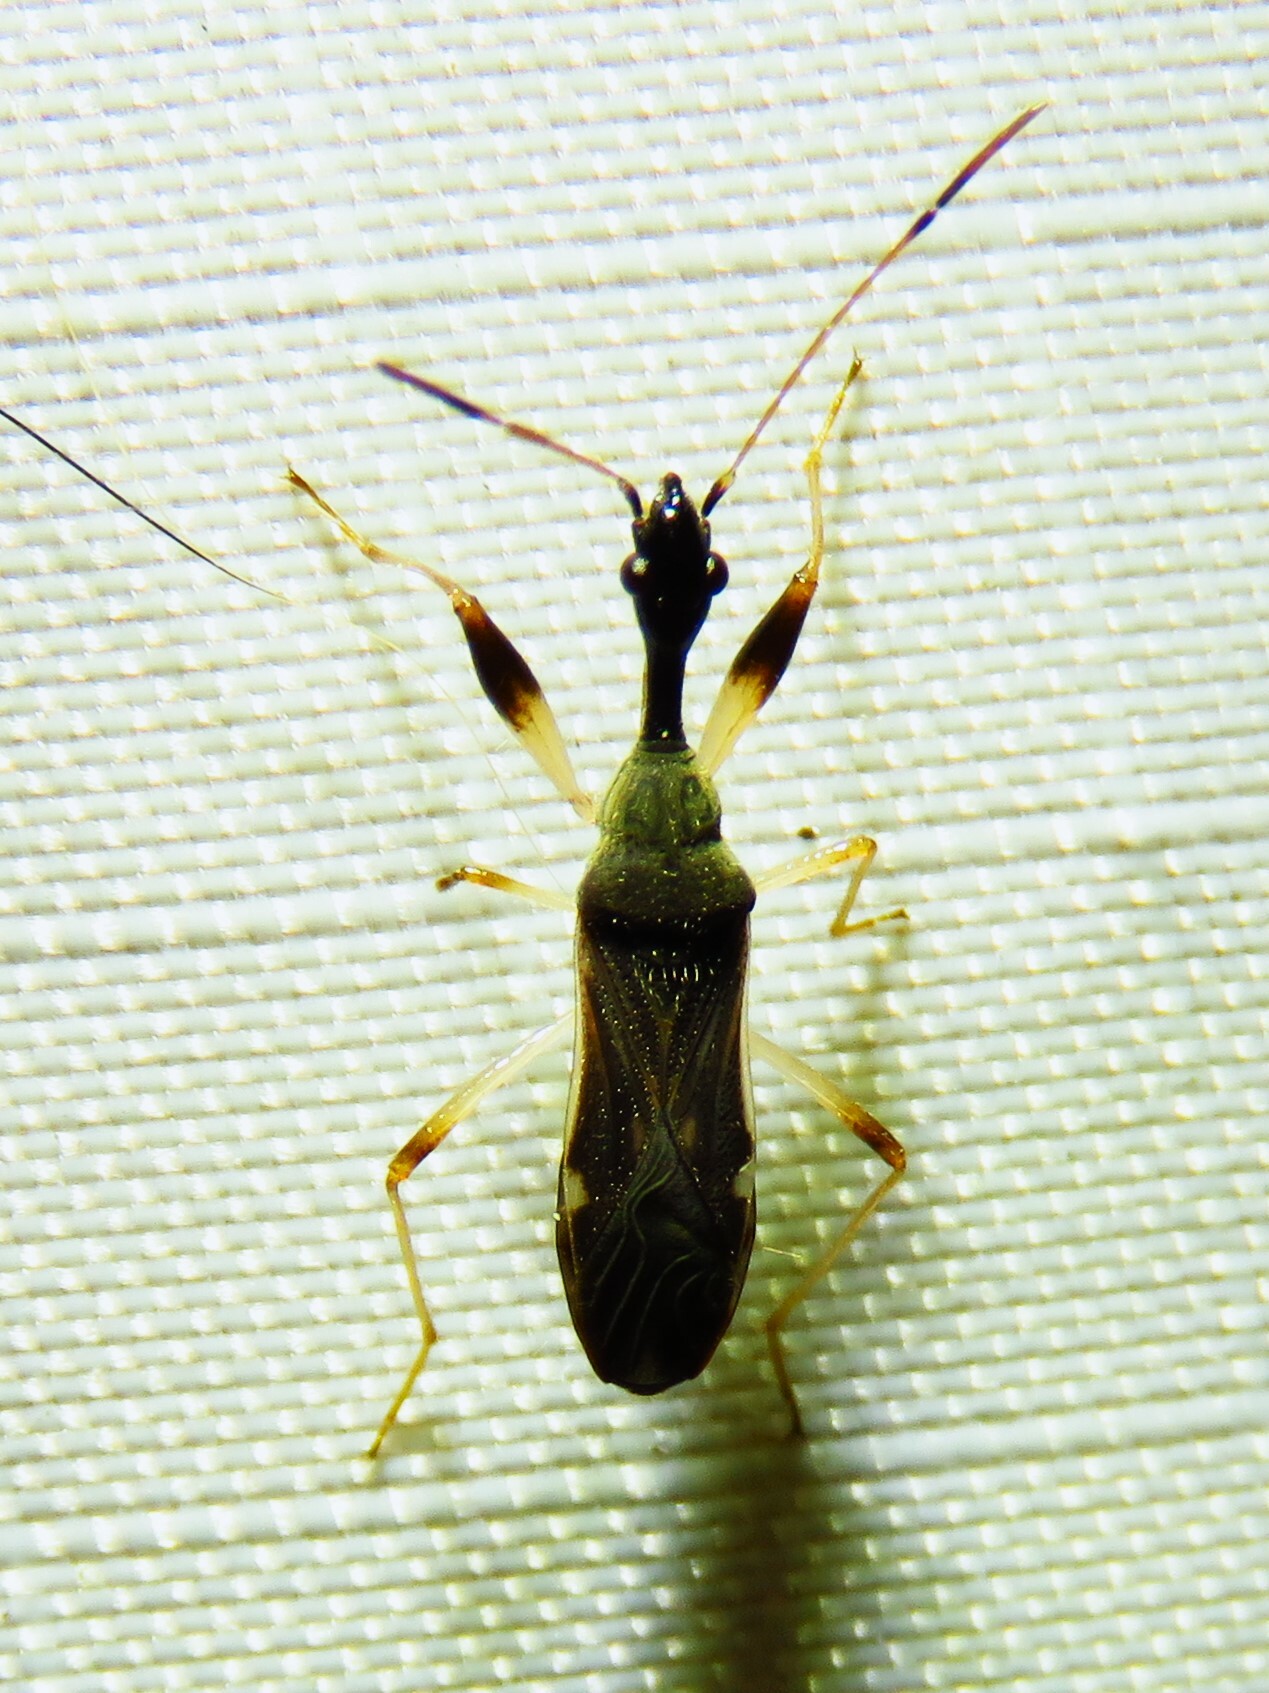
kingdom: Animalia
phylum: Arthropoda
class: Insecta
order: Hemiptera
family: Rhyparochromidae
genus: Myodocha
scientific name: Myodocha serripes
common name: Long-necked seed bug
